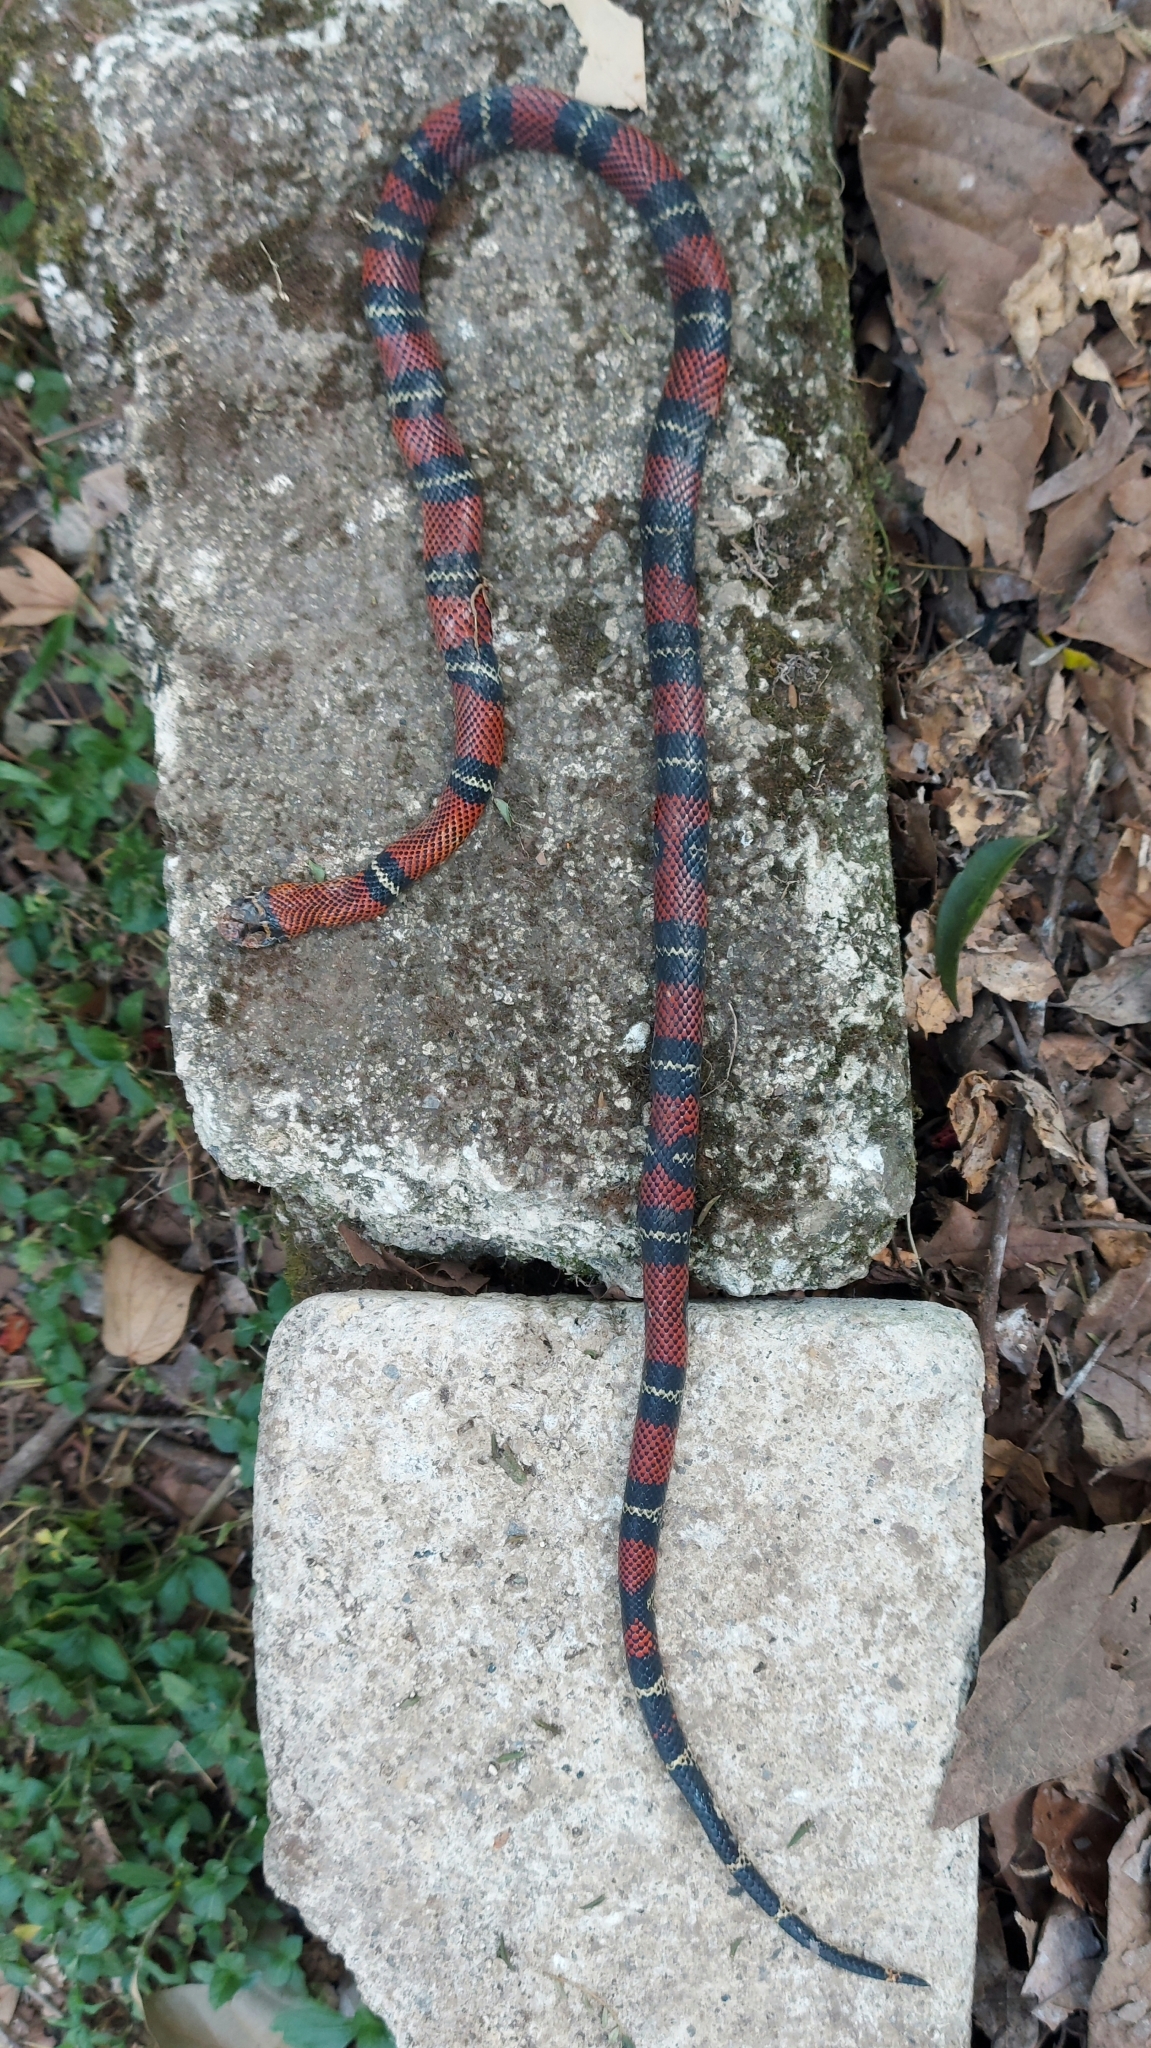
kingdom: Animalia
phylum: Chordata
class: Squamata
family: Colubridae
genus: Lampropeltis
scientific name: Lampropeltis polyzona
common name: Atlantic central american milksnake
